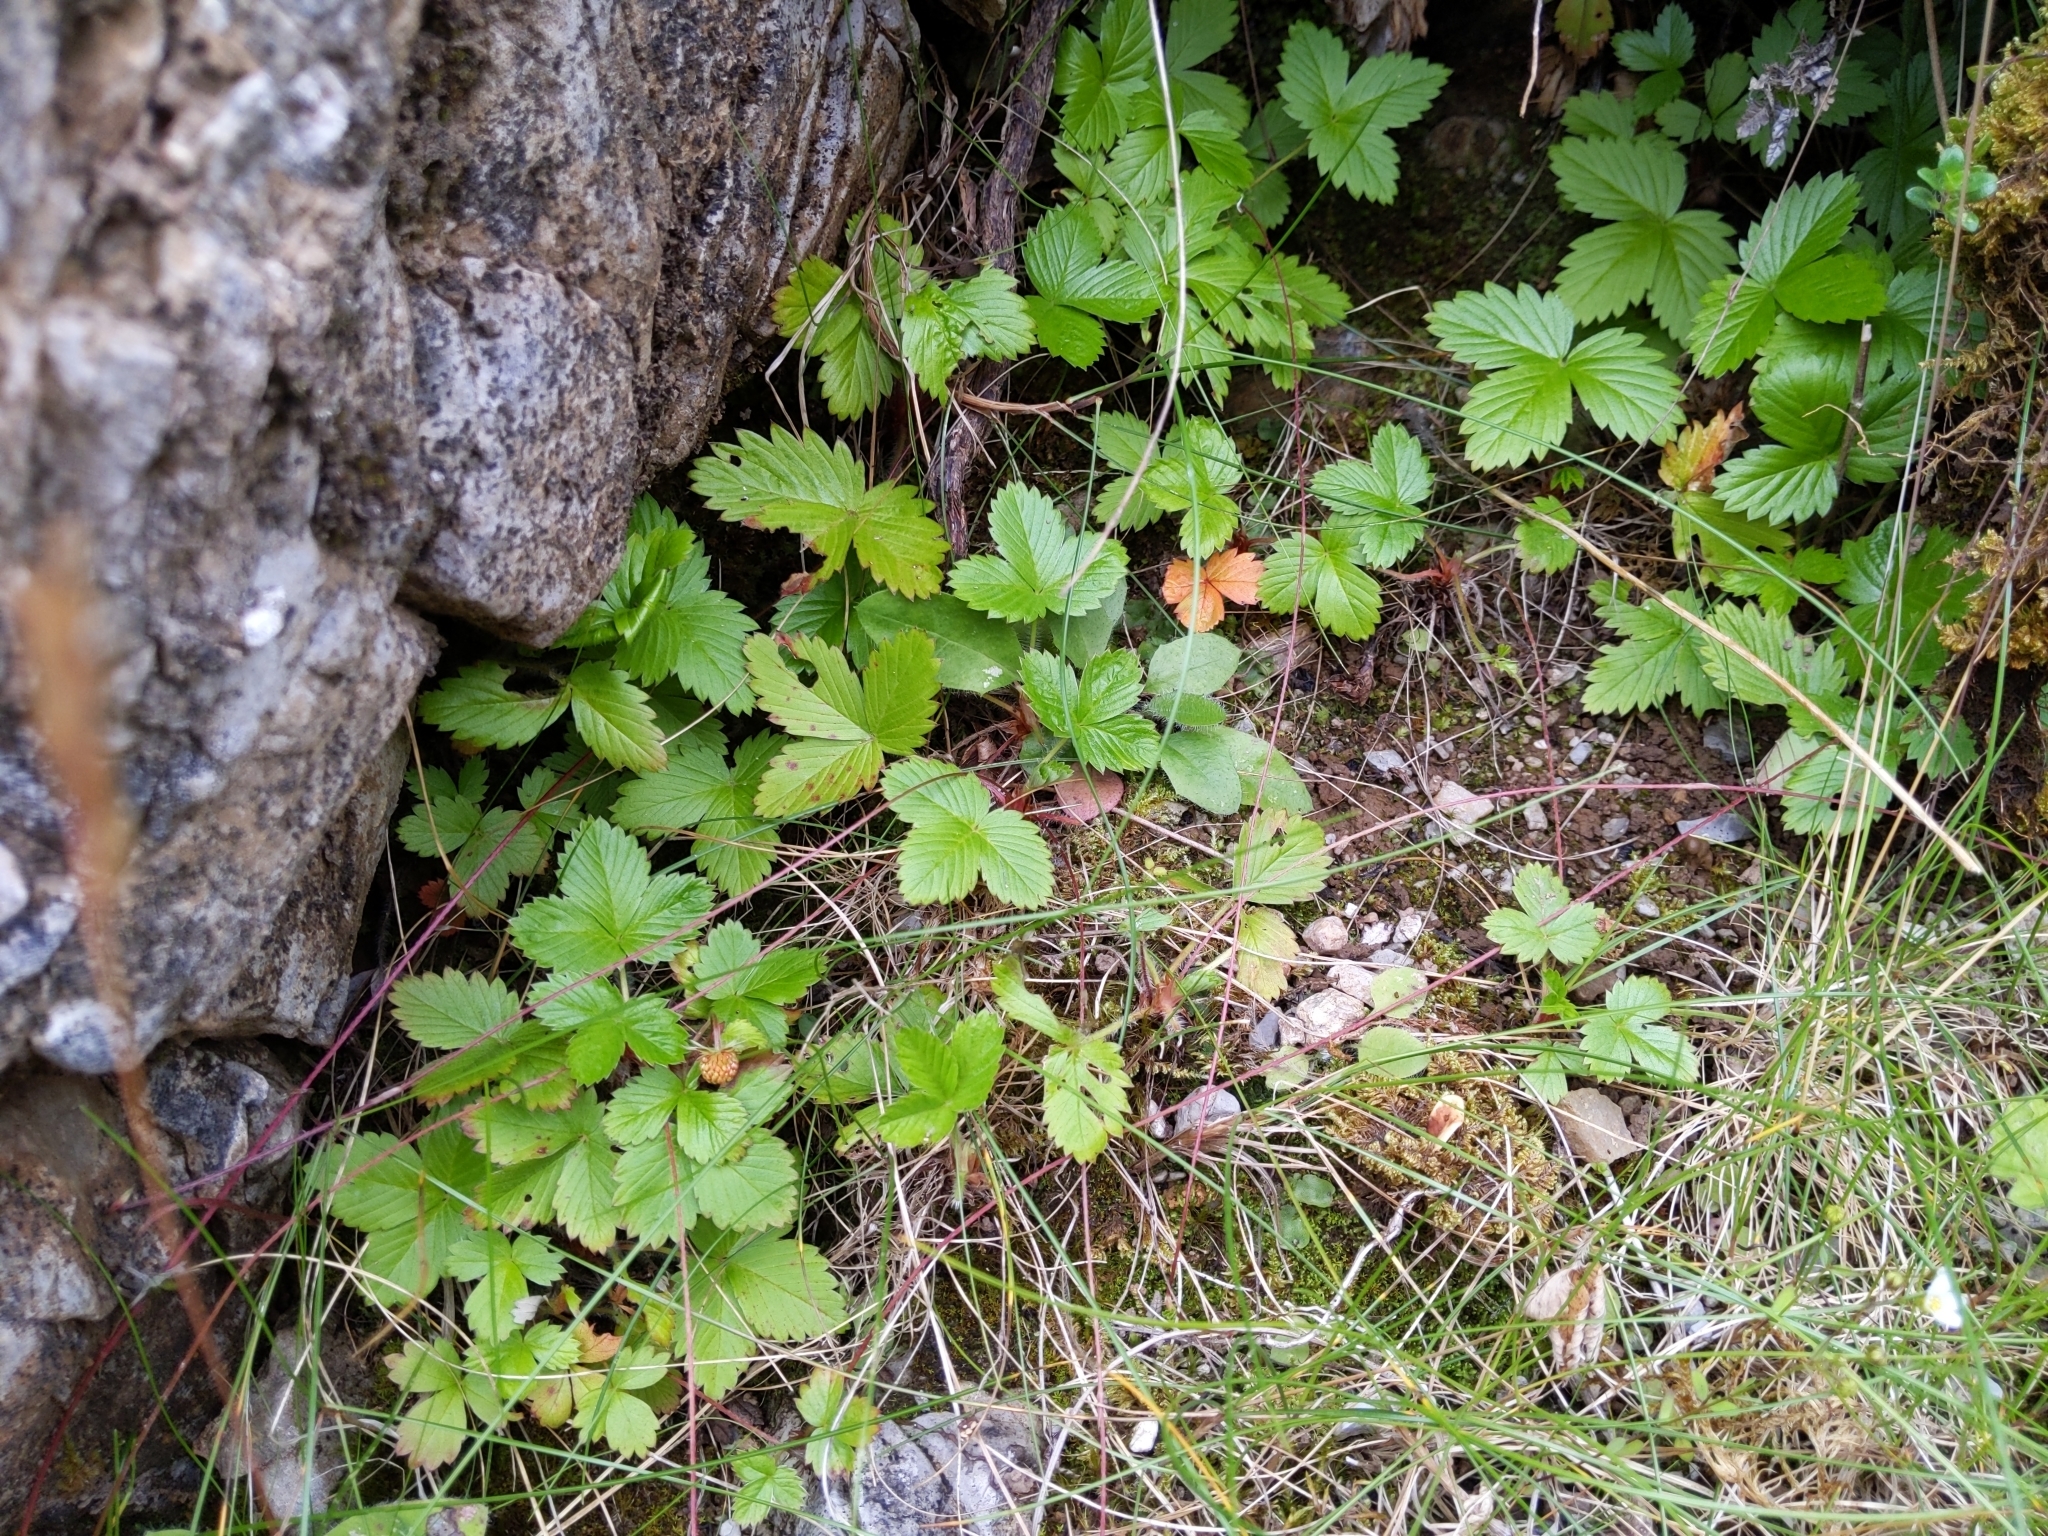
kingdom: Plantae
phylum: Tracheophyta
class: Magnoliopsida
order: Rosales
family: Rosaceae
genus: Fragaria
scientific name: Fragaria vesca
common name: Wild strawberry
